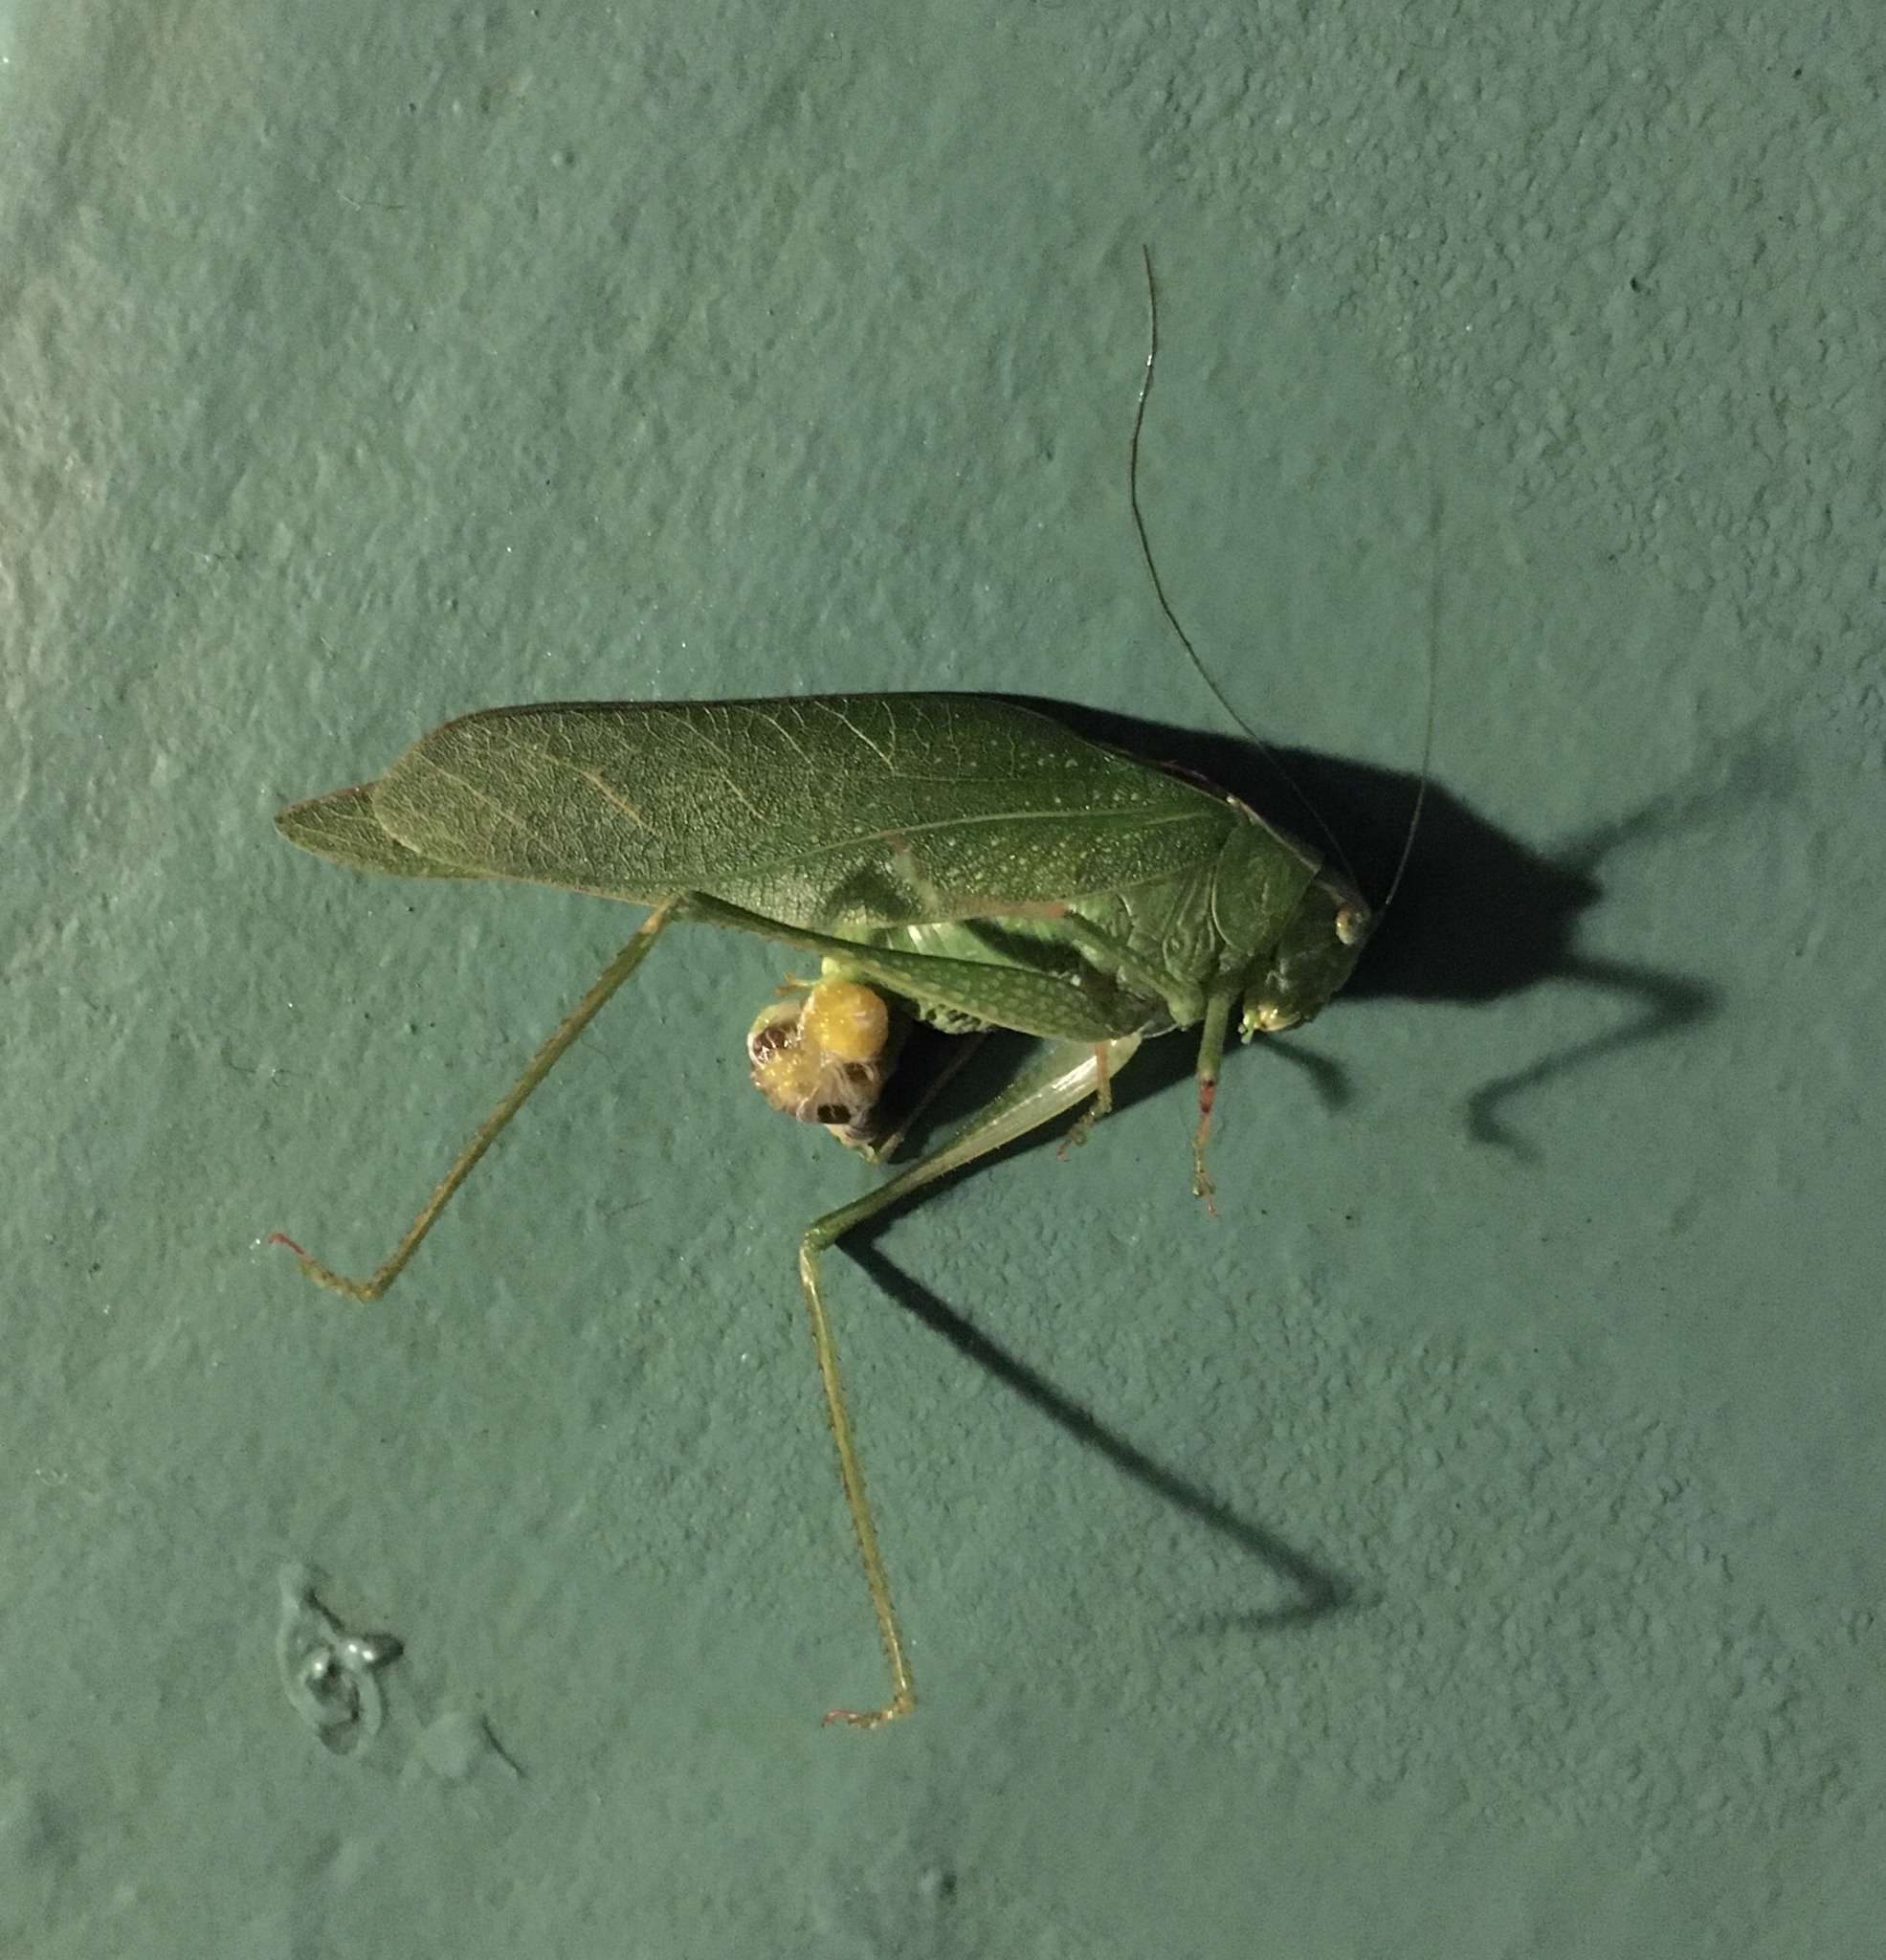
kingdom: Animalia
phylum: Arthropoda
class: Insecta
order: Orthoptera
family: Tettigoniidae
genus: Microcentrum
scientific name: Microcentrum
